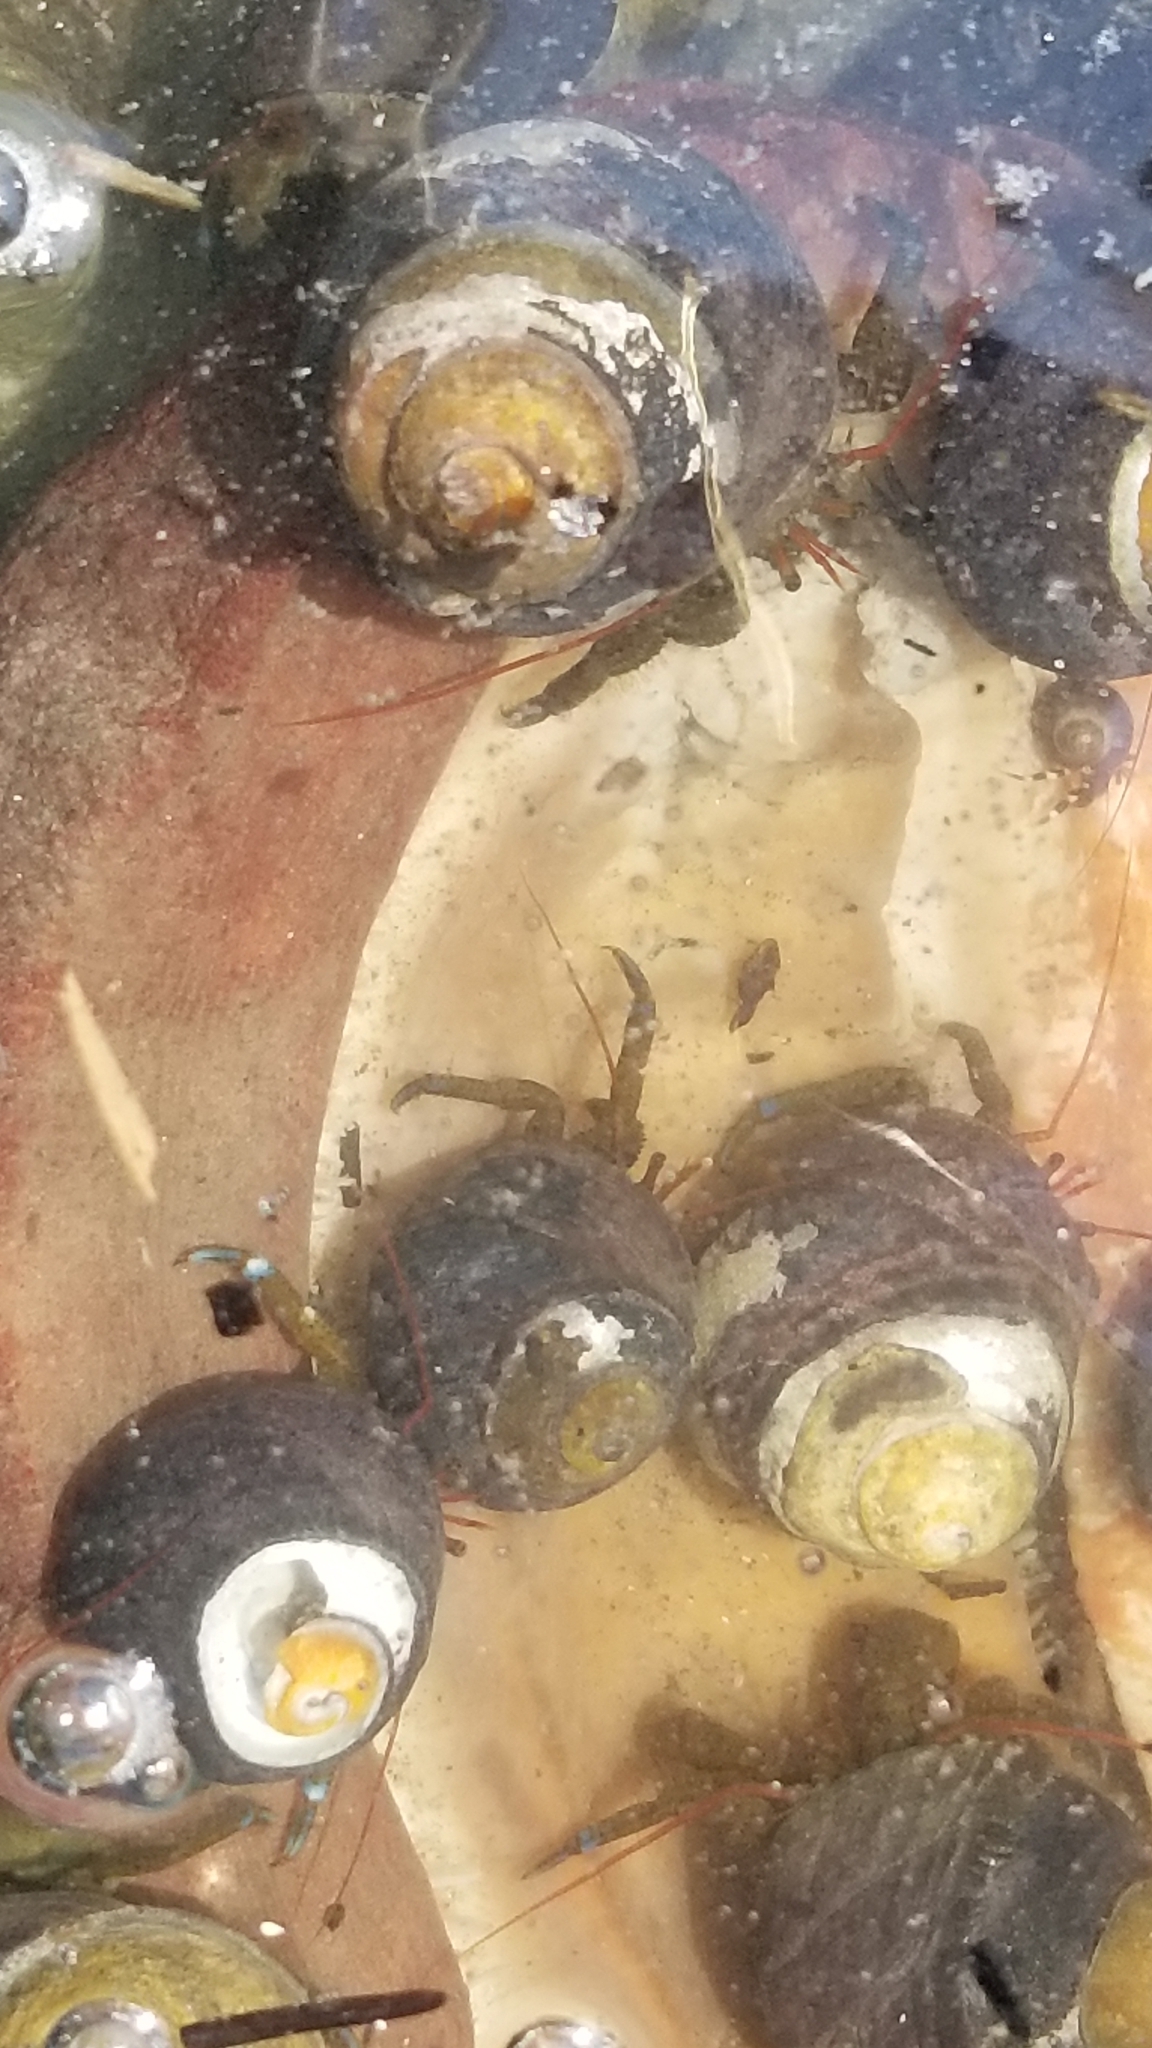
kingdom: Animalia
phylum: Arthropoda
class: Malacostraca
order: Decapoda
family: Paguridae
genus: Pagurus
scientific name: Pagurus samuelis
